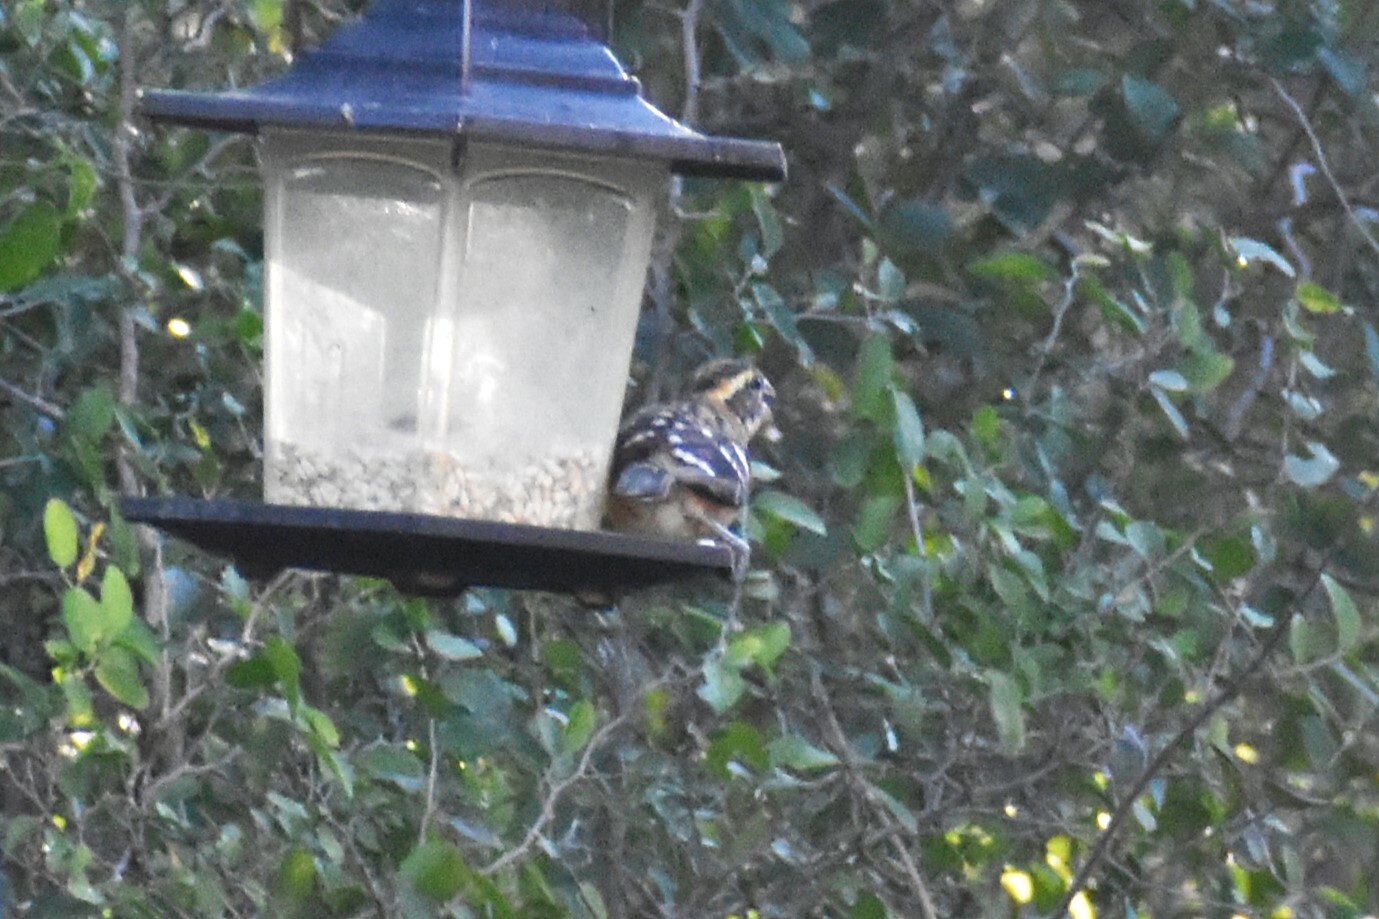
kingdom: Animalia
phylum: Chordata
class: Aves
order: Passeriformes
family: Cardinalidae
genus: Pheucticus
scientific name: Pheucticus melanocephalus
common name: Black-headed grosbeak
